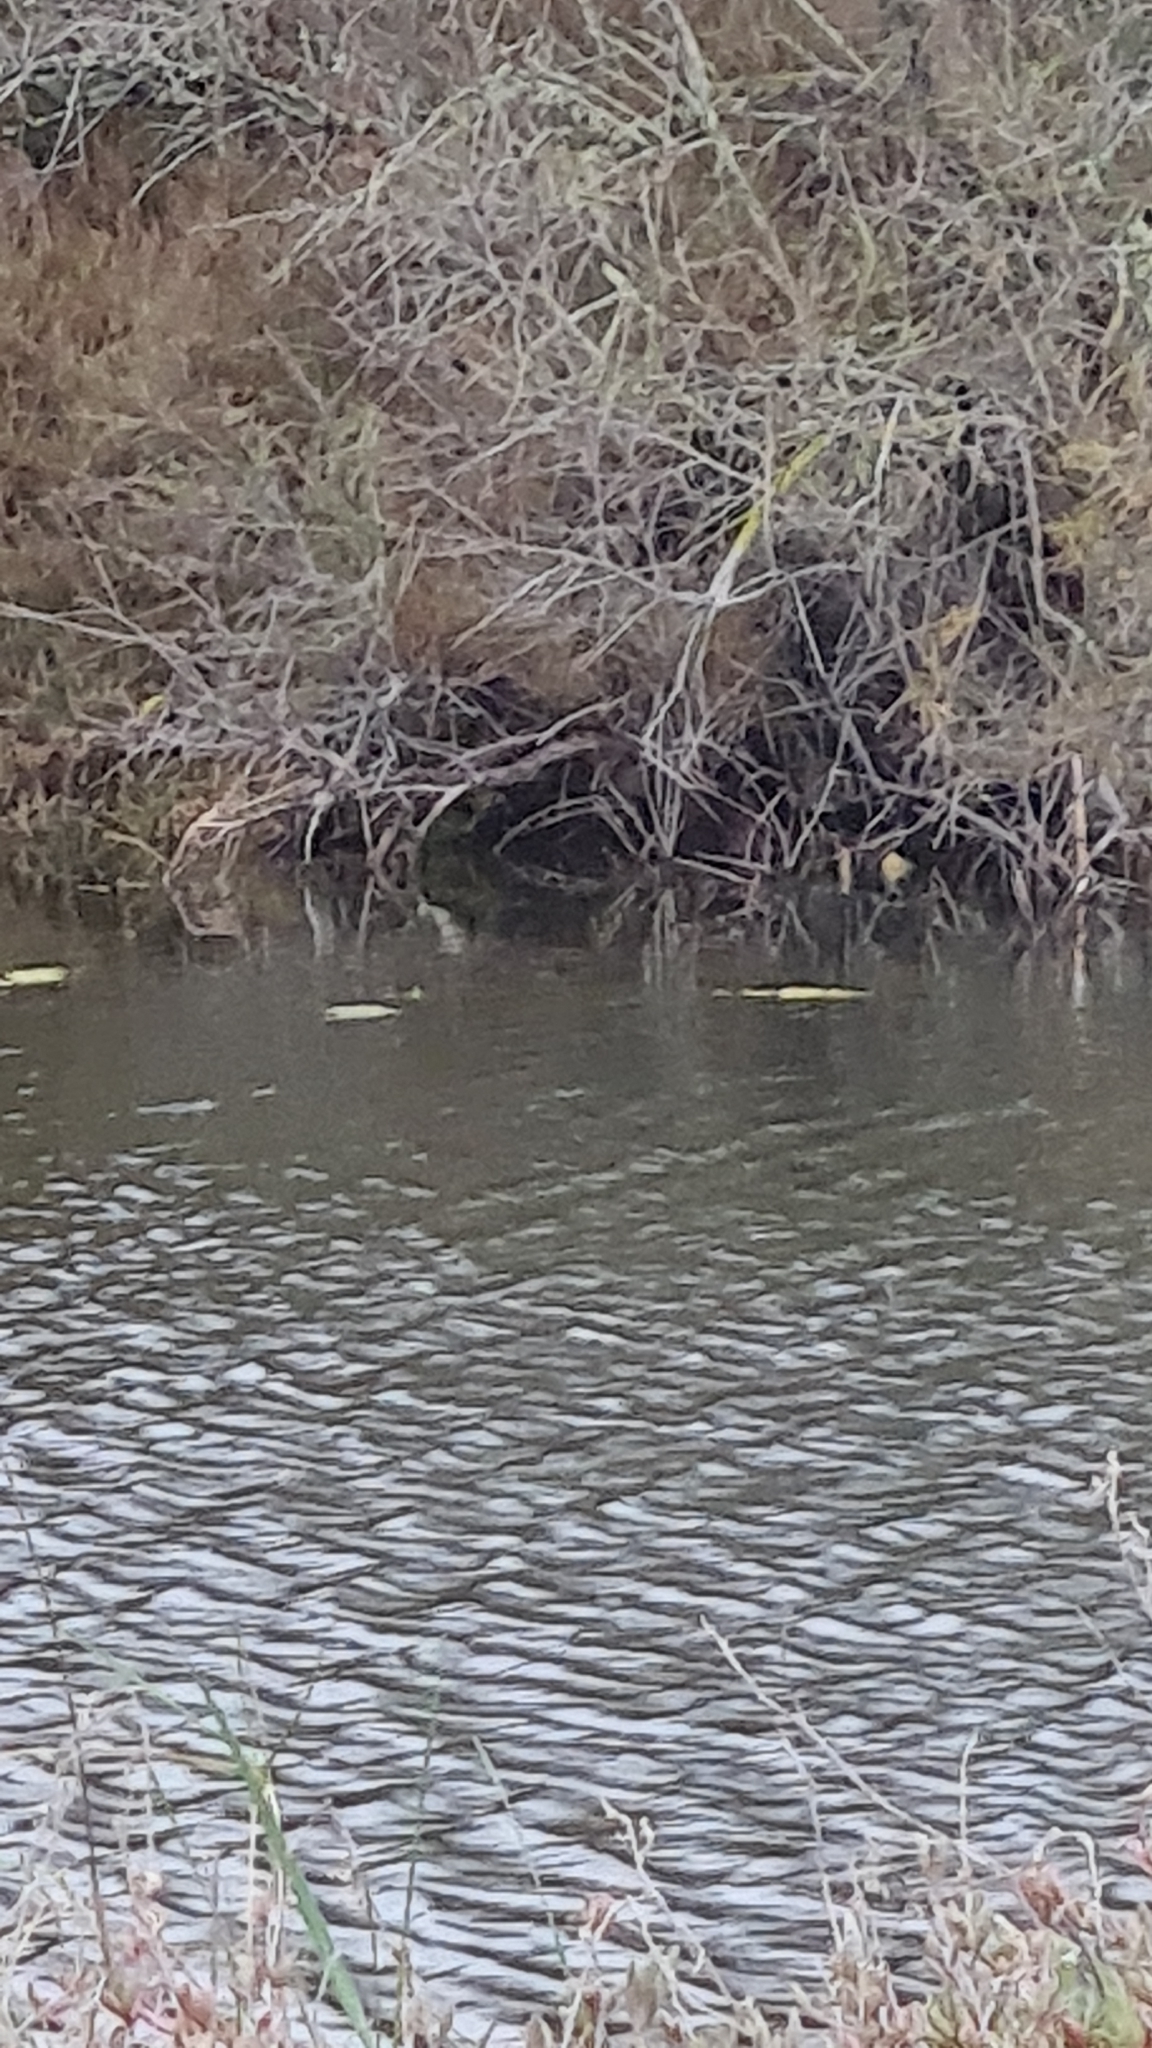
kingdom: Animalia
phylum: Chordata
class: Aves
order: Gruiformes
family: Rallidae
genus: Porzana
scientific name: Porzana porzana
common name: Spotted crake
